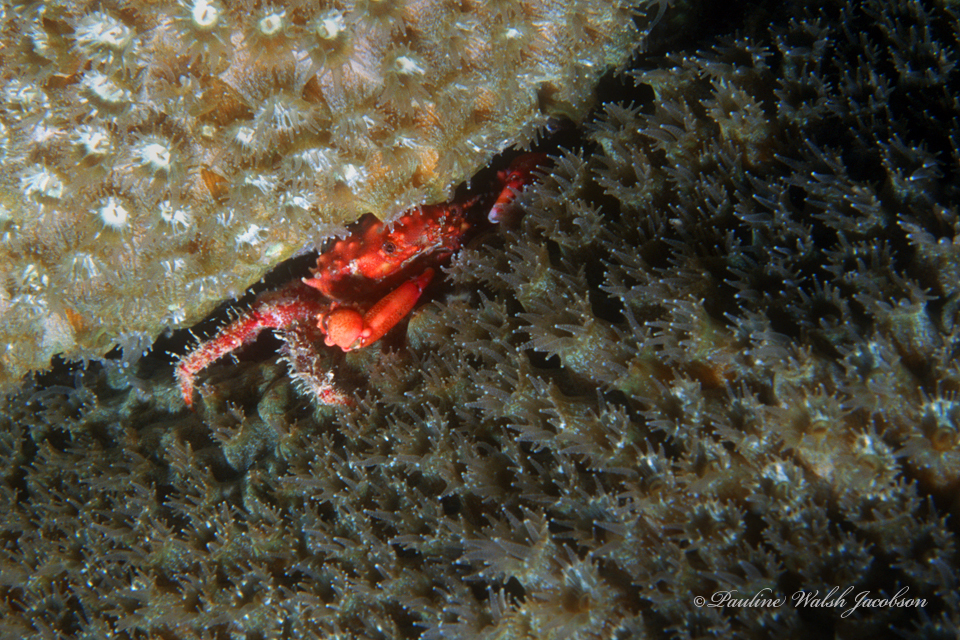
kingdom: Animalia
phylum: Arthropoda
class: Malacostraca
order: Decapoda
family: Mithracidae
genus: Mithraculus
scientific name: Mithraculus forceps
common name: Red-ridged clinging crab
